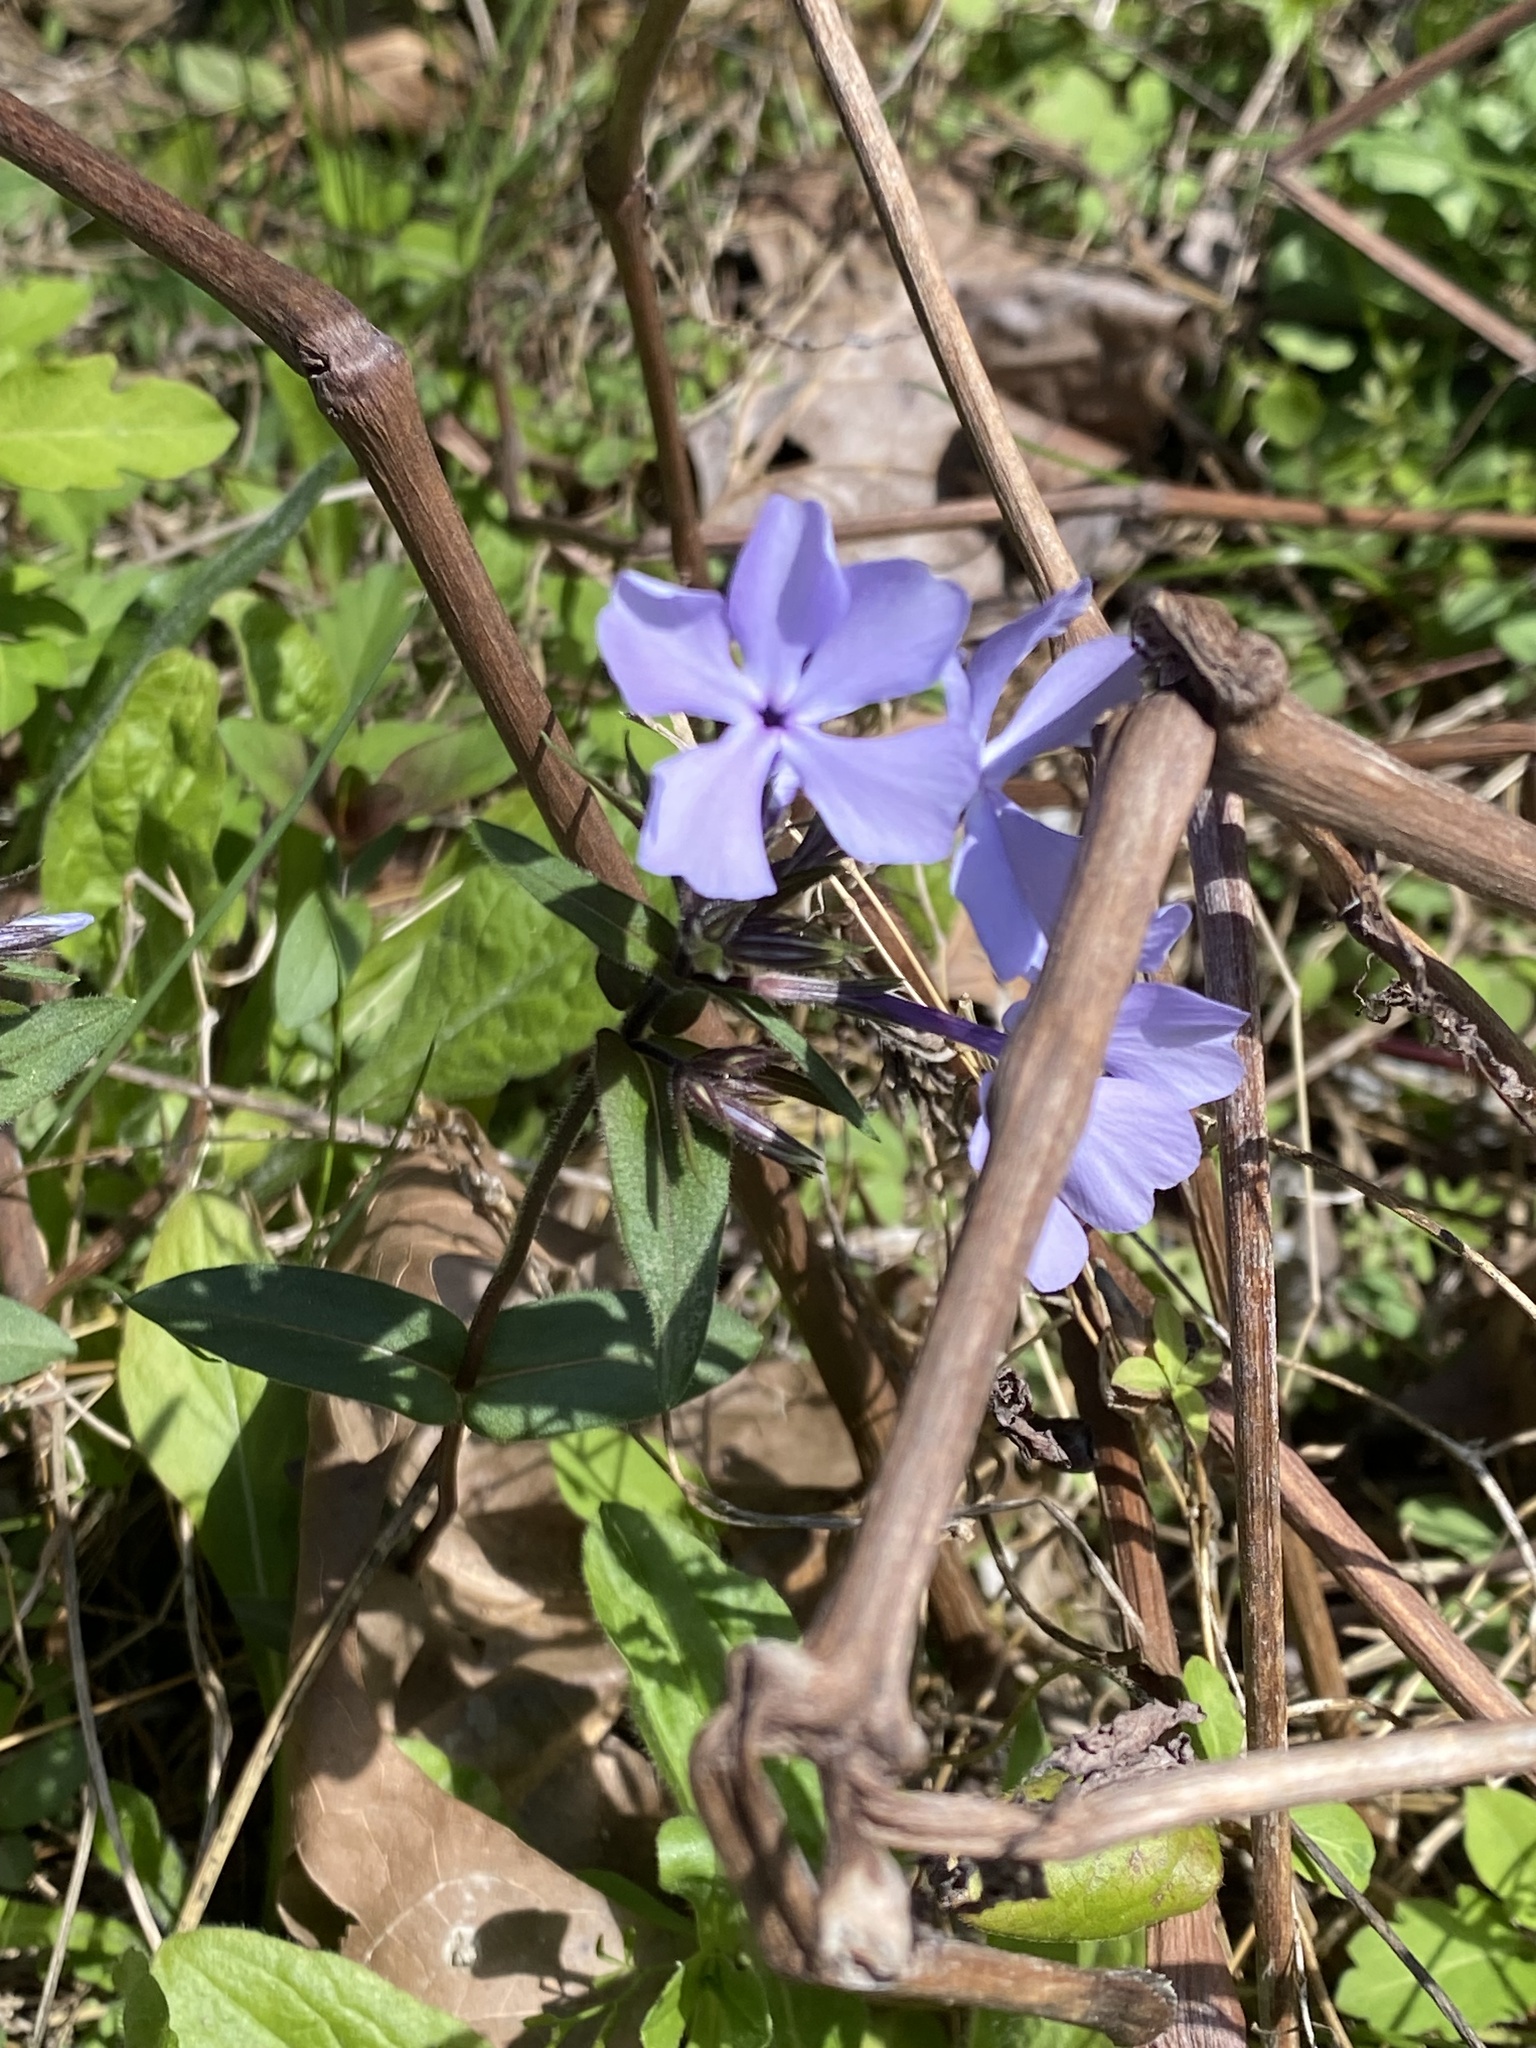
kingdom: Plantae
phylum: Tracheophyta
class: Magnoliopsida
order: Ericales
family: Polemoniaceae
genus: Phlox
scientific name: Phlox divaricata
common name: Blue phlox
